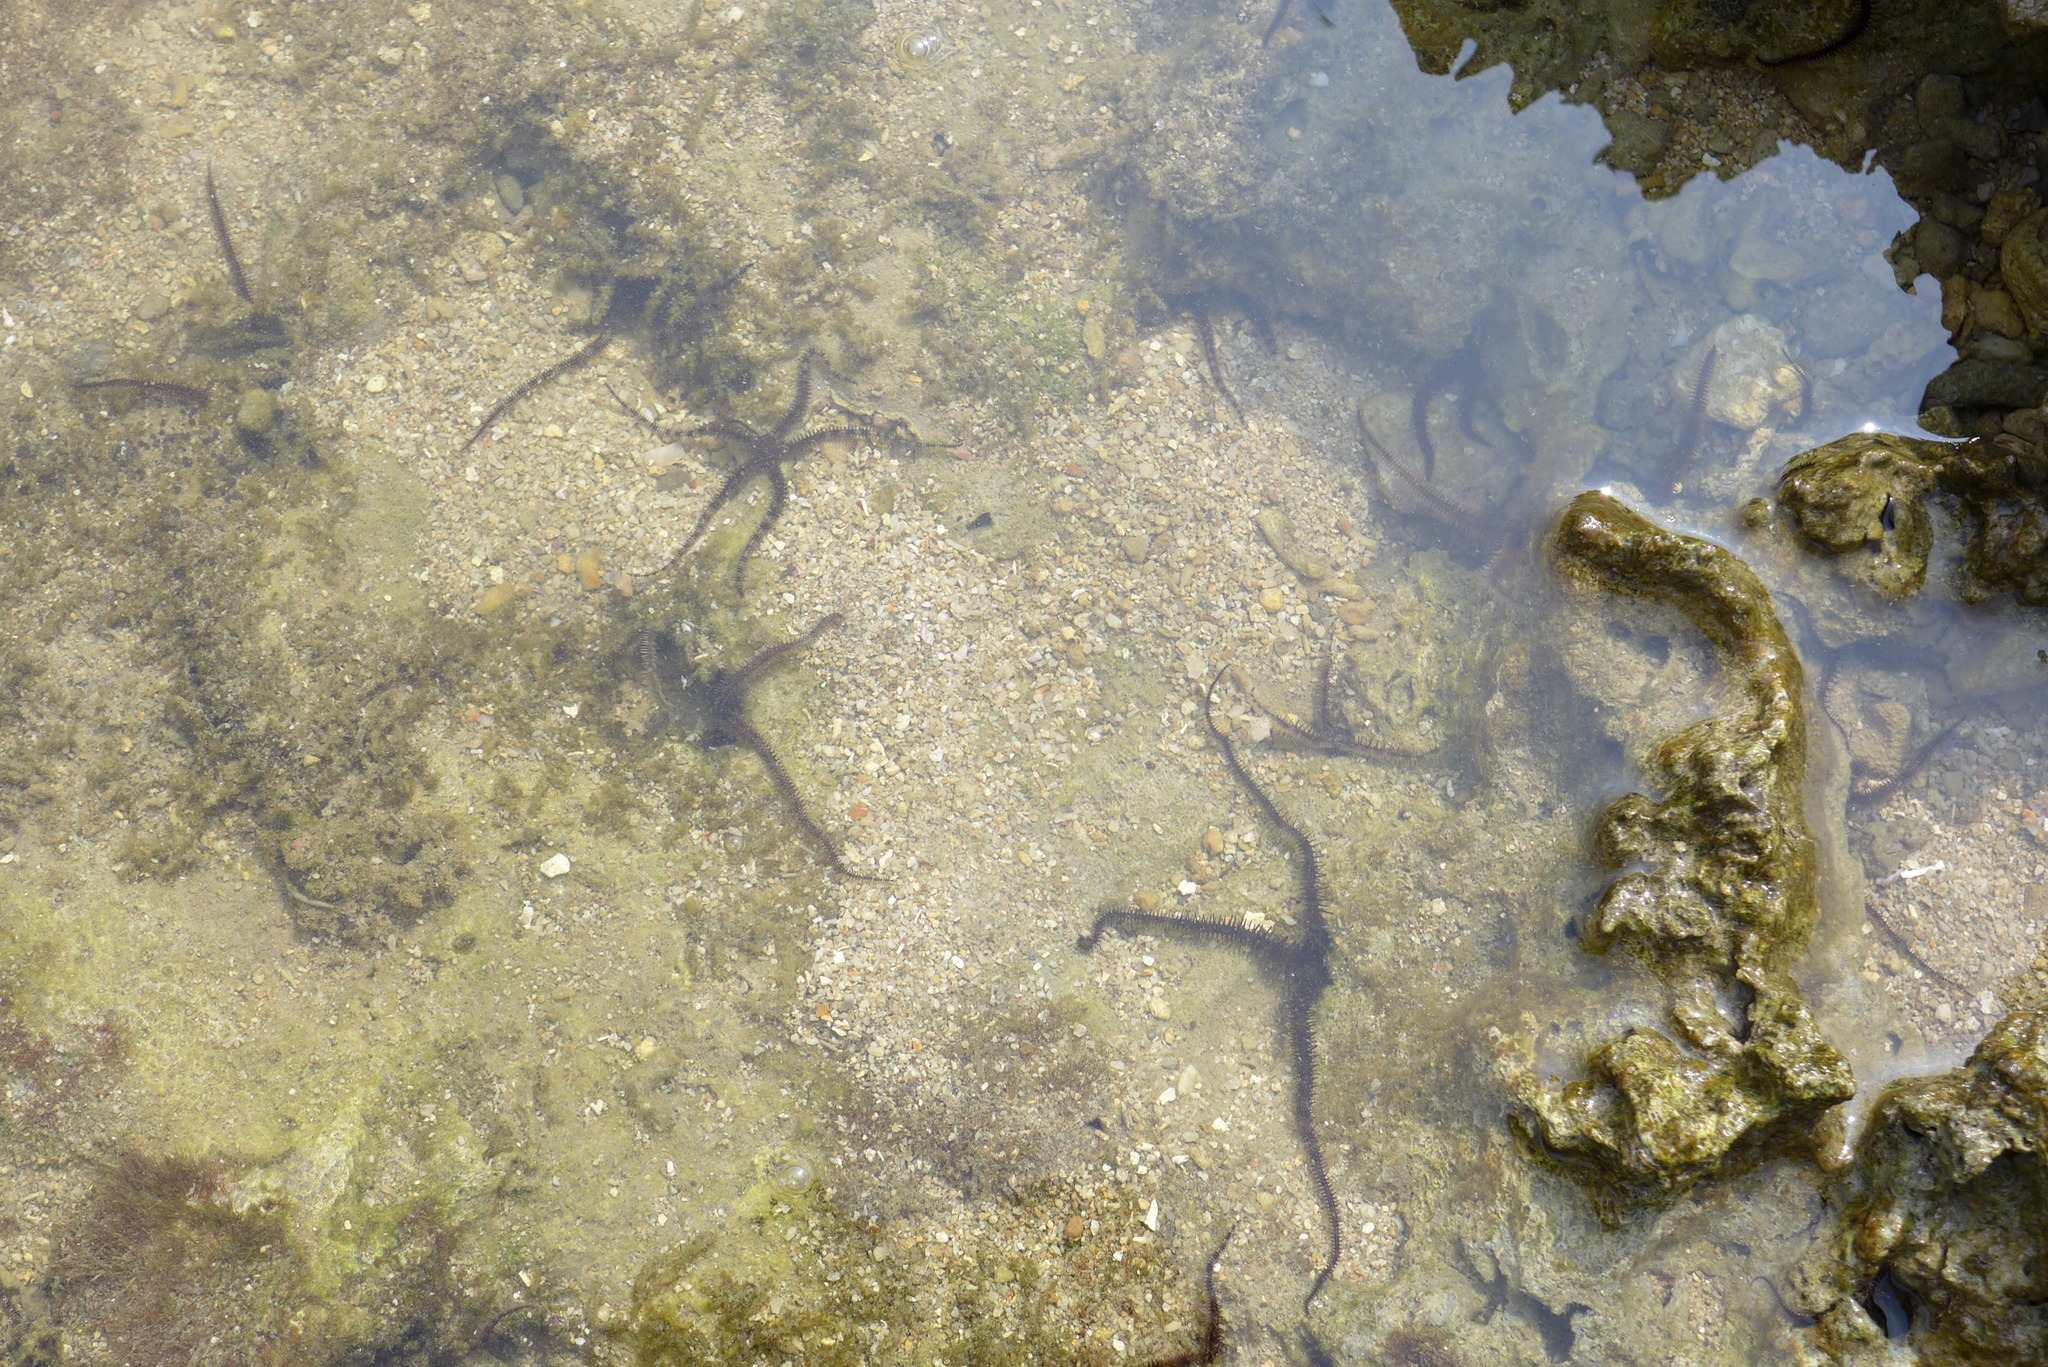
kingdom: Animalia
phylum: Echinodermata
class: Ophiuroidea
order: Ophiacanthida
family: Ophiocomidae
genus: Ophiocoma
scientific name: Ophiocoma scolopendrina
